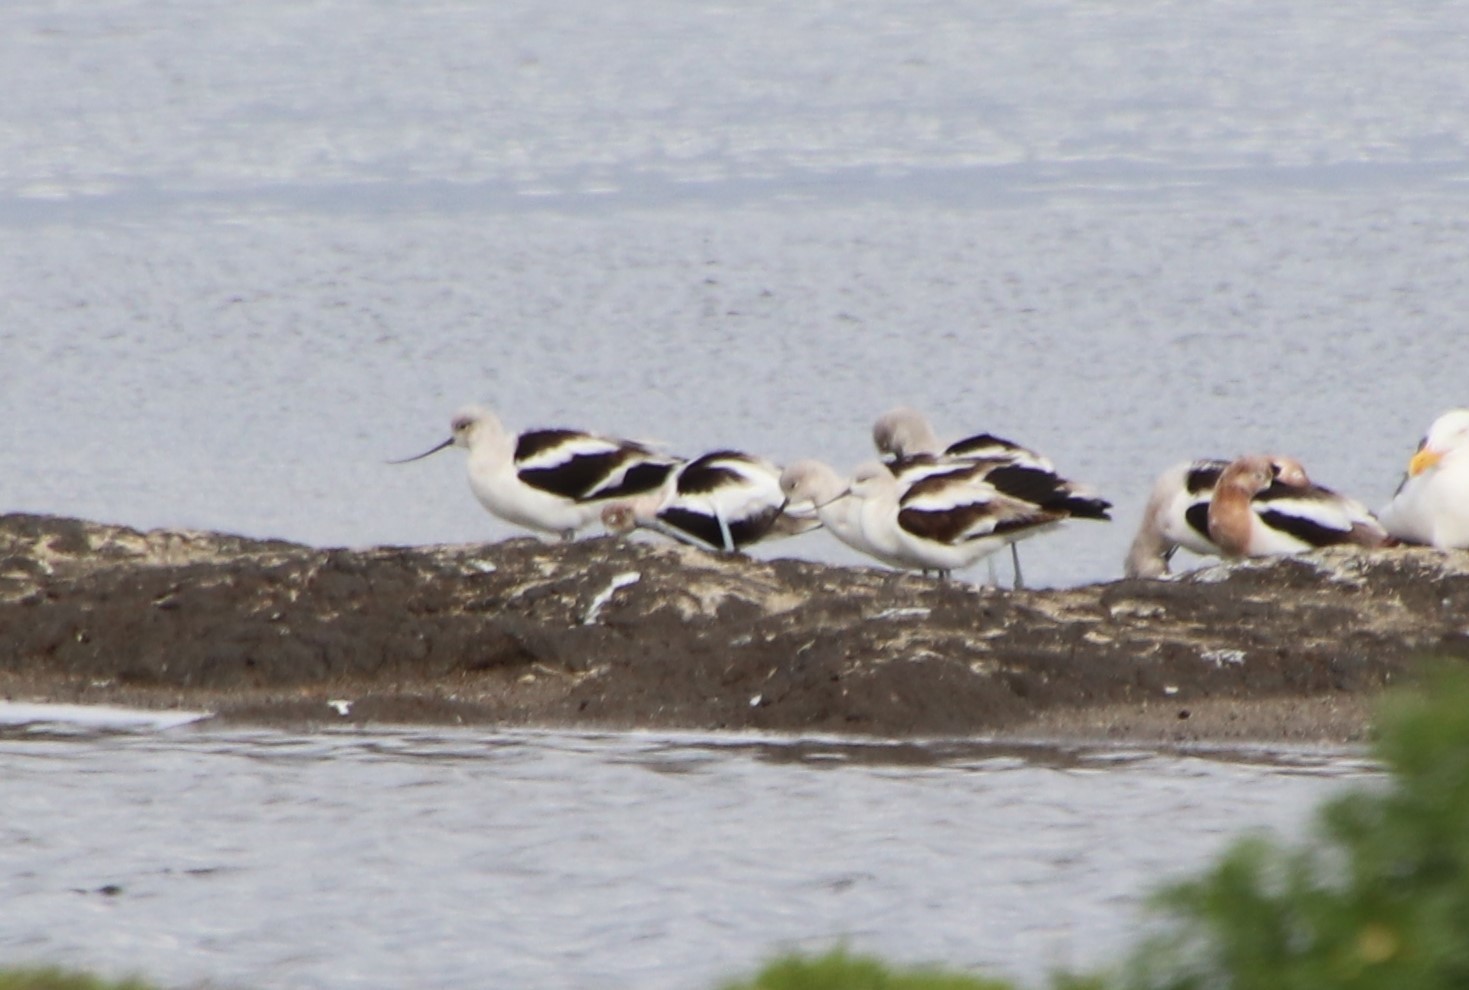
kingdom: Animalia
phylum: Chordata
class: Aves
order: Charadriiformes
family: Recurvirostridae
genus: Recurvirostra
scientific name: Recurvirostra americana
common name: American avocet
